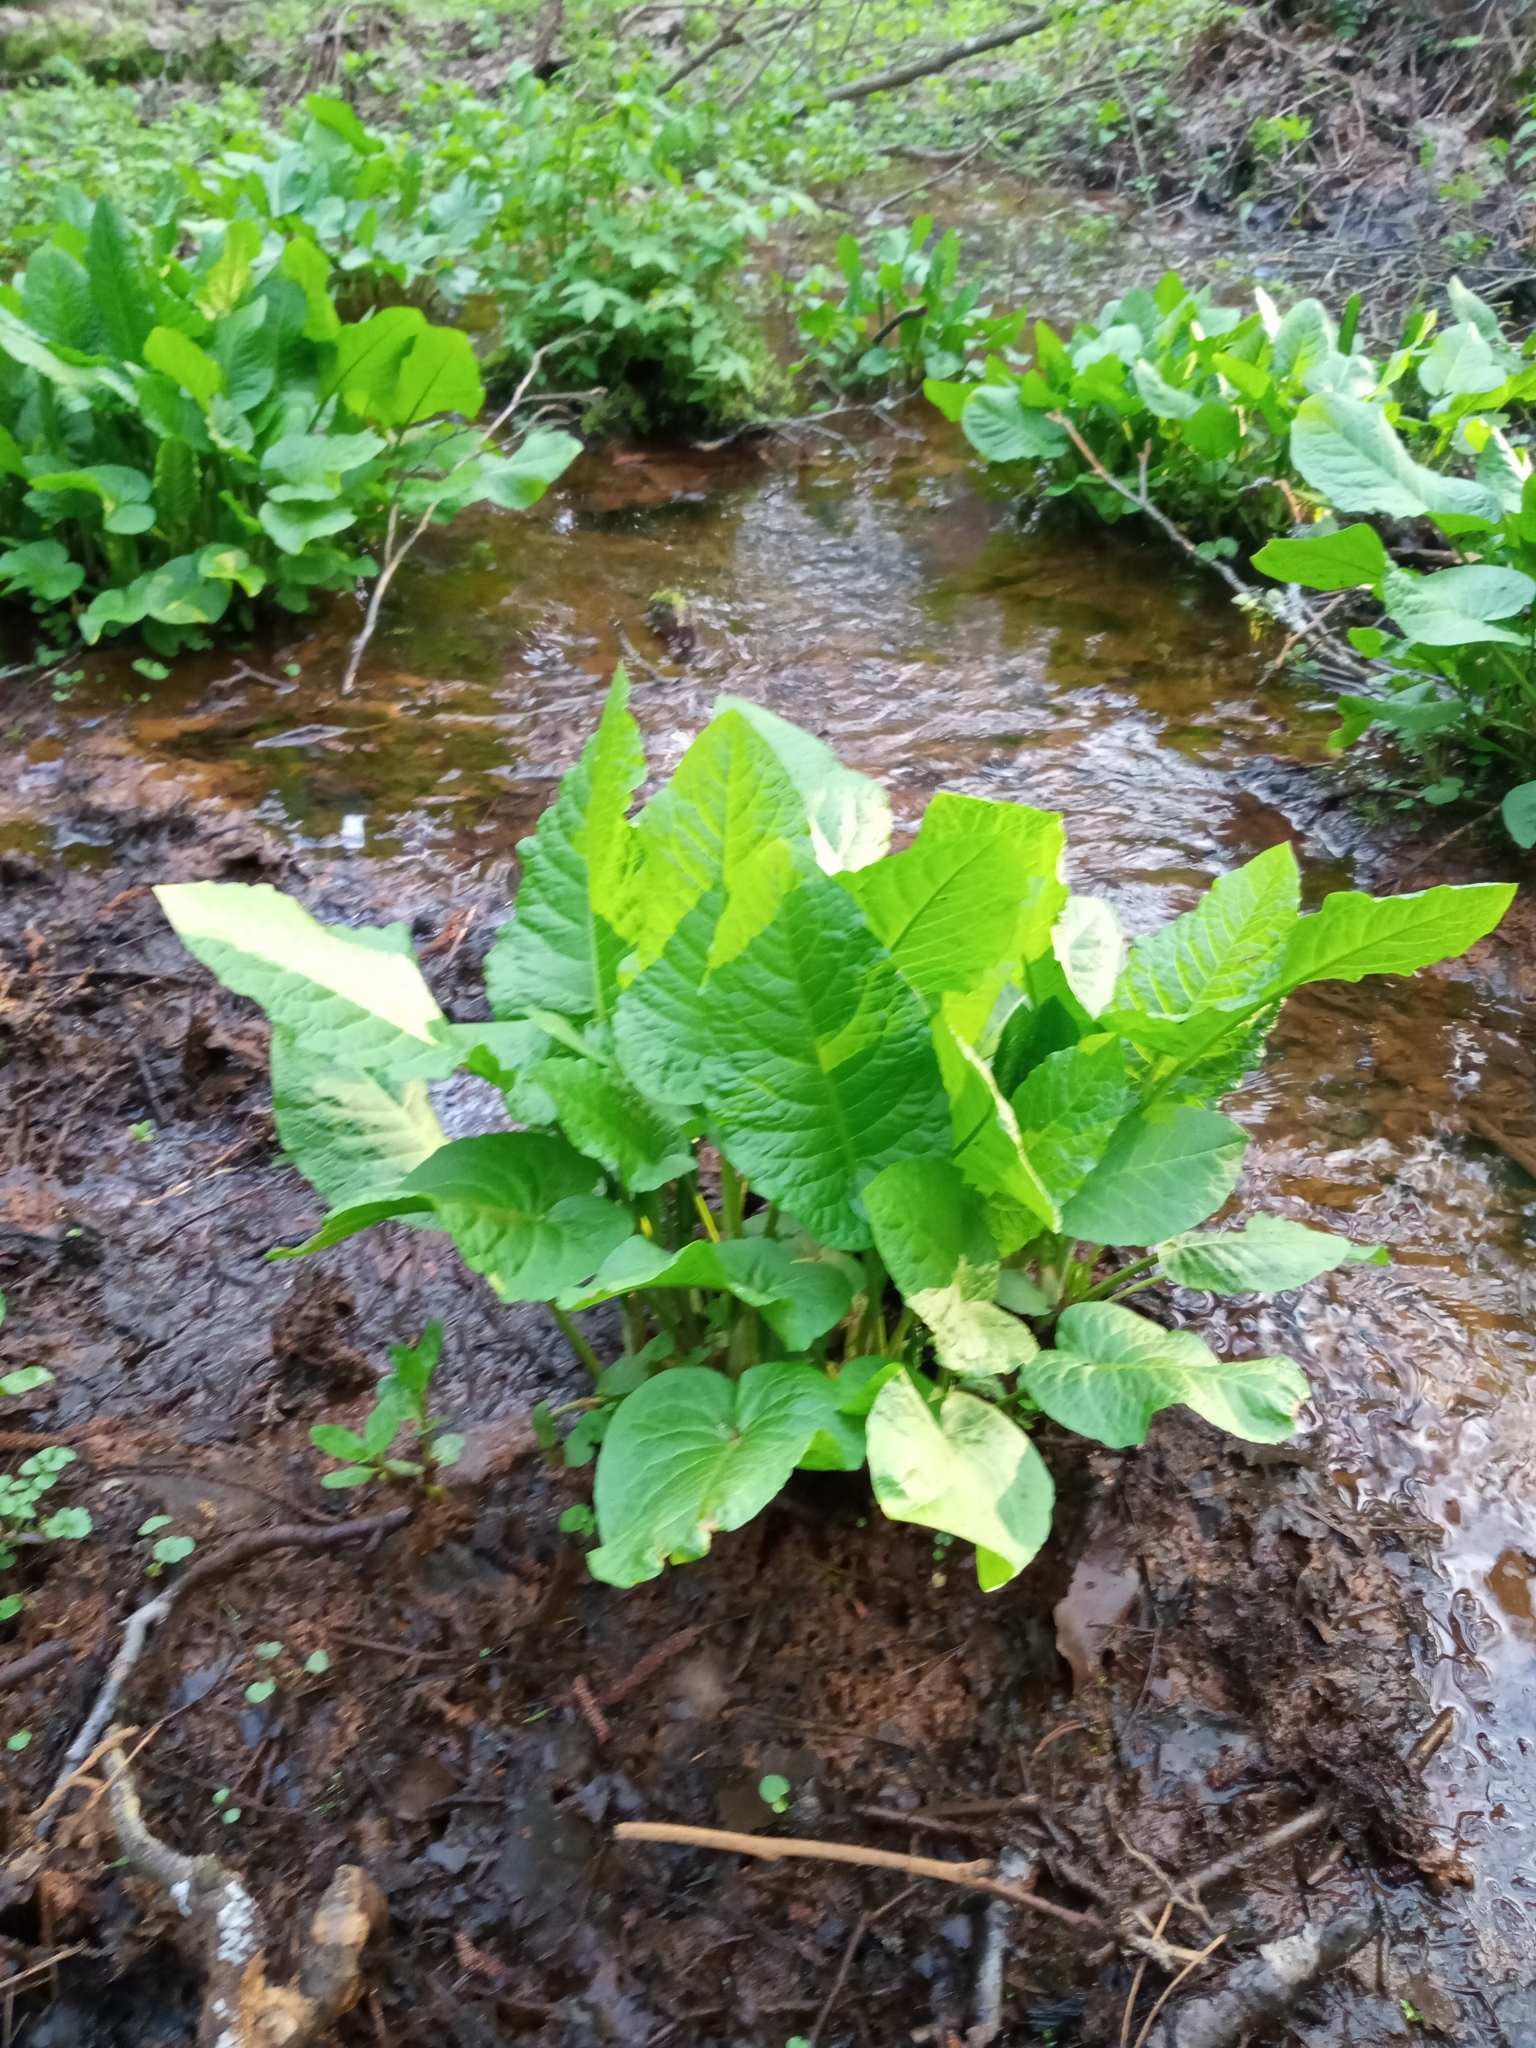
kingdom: Plantae
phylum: Tracheophyta
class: Magnoliopsida
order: Caryophyllales
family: Polygonaceae
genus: Rumex
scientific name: Rumex aquaticus
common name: Scottish dock
